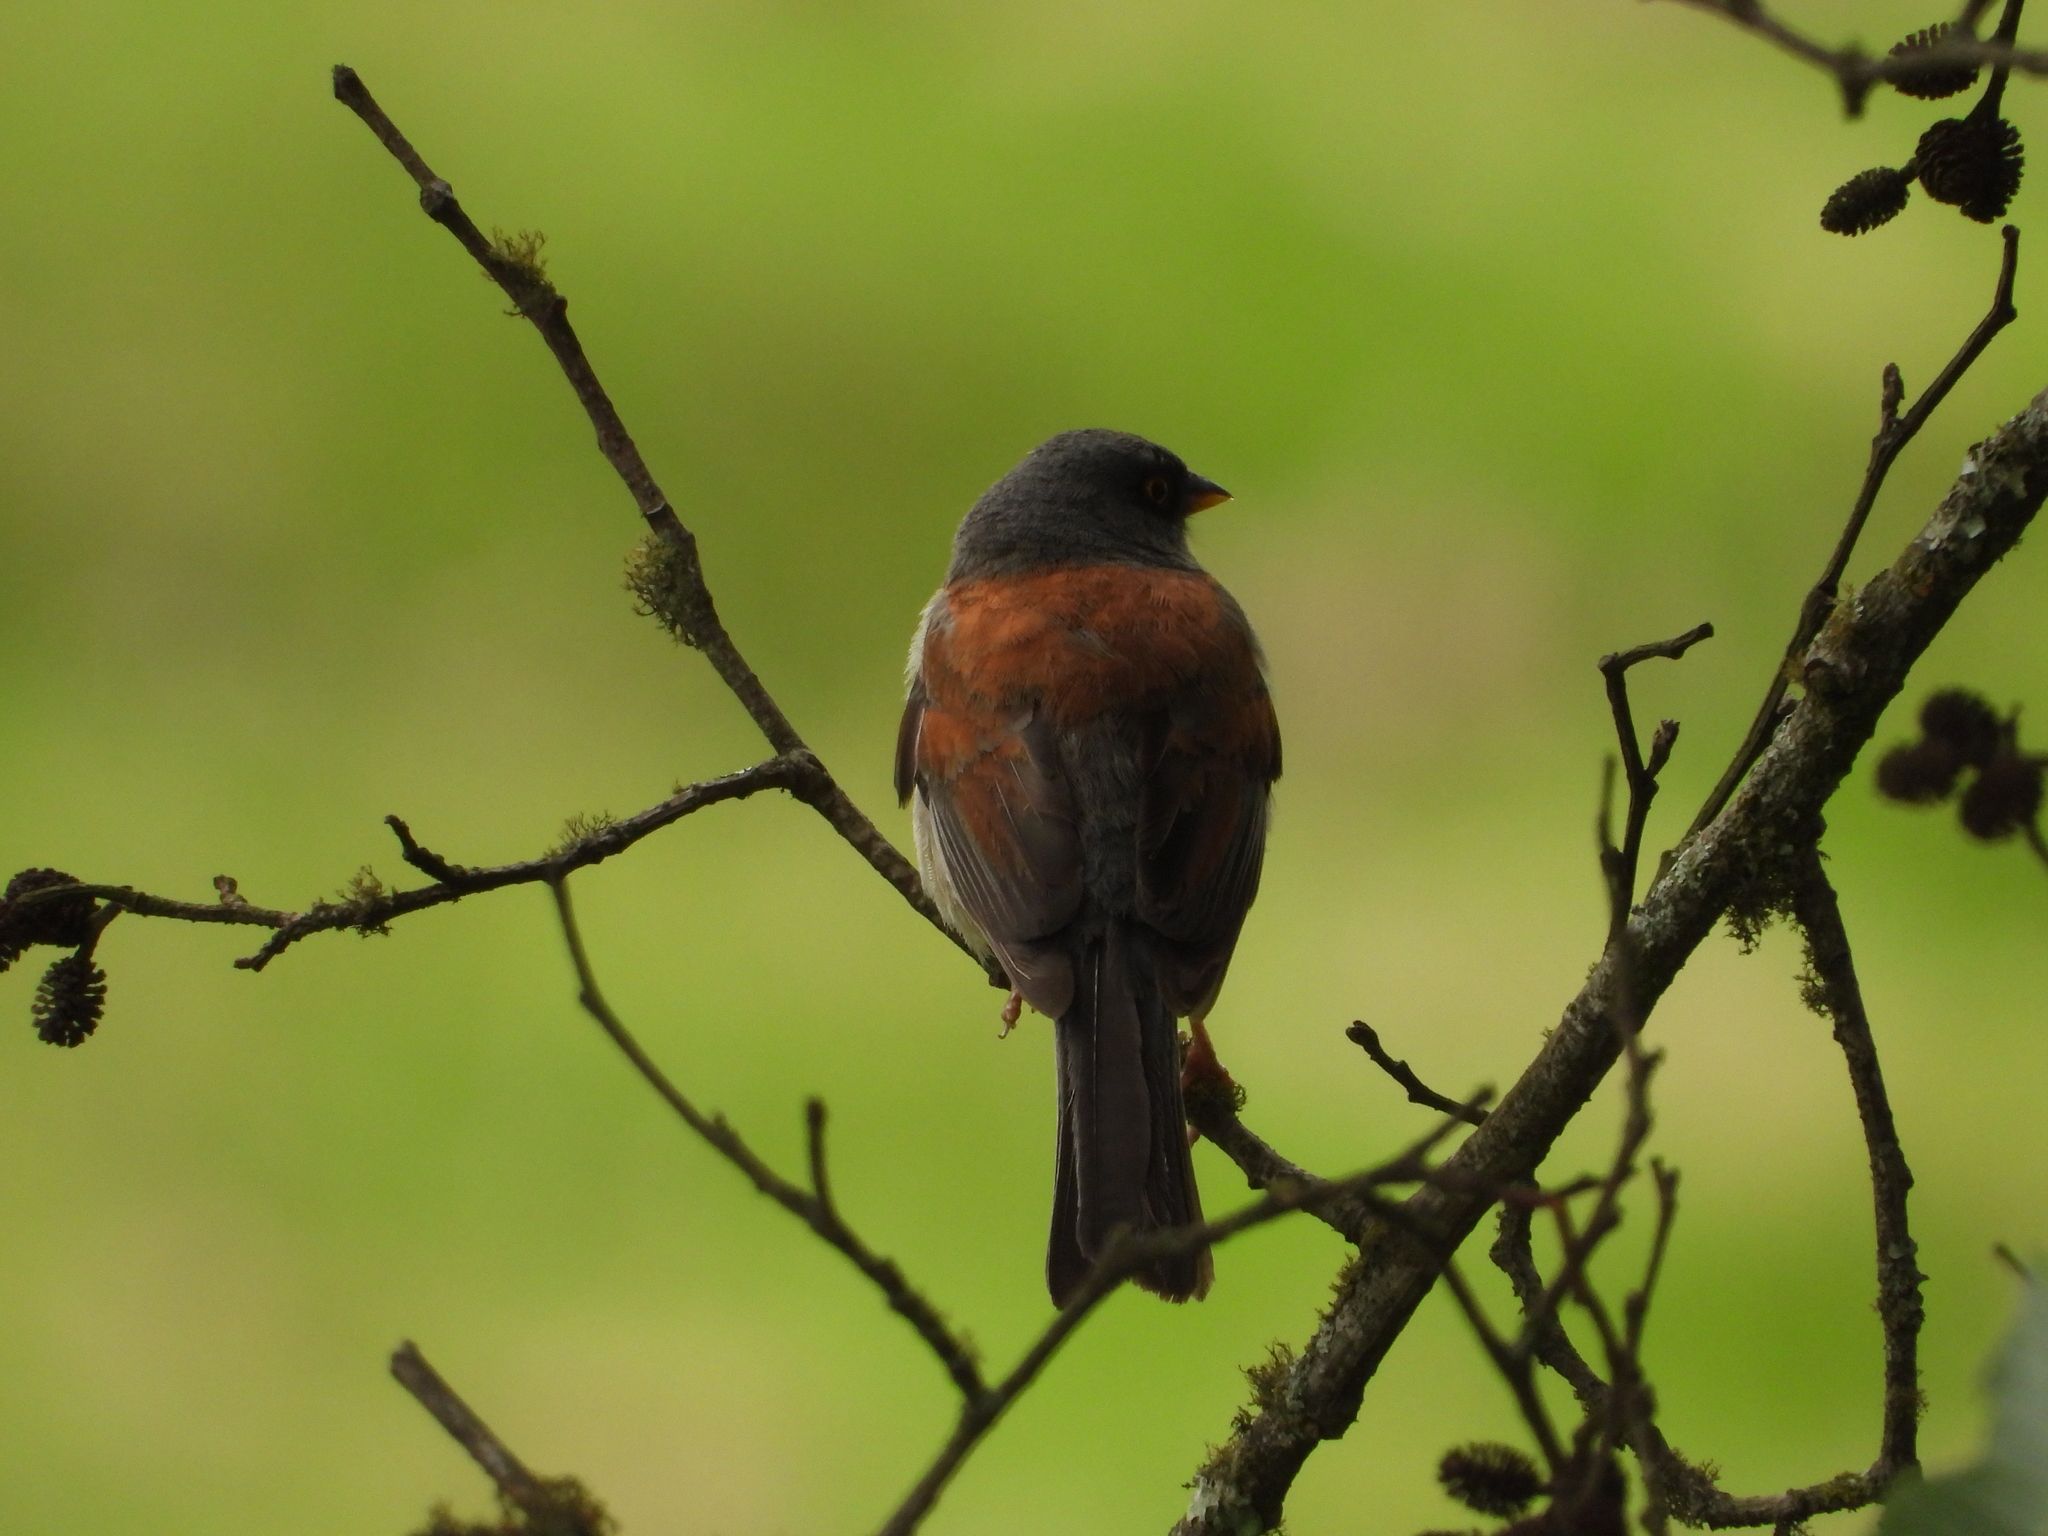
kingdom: Animalia
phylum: Chordata
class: Aves
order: Passeriformes
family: Passerellidae
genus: Junco
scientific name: Junco phaeonotus
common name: Yellow-eyed junco
